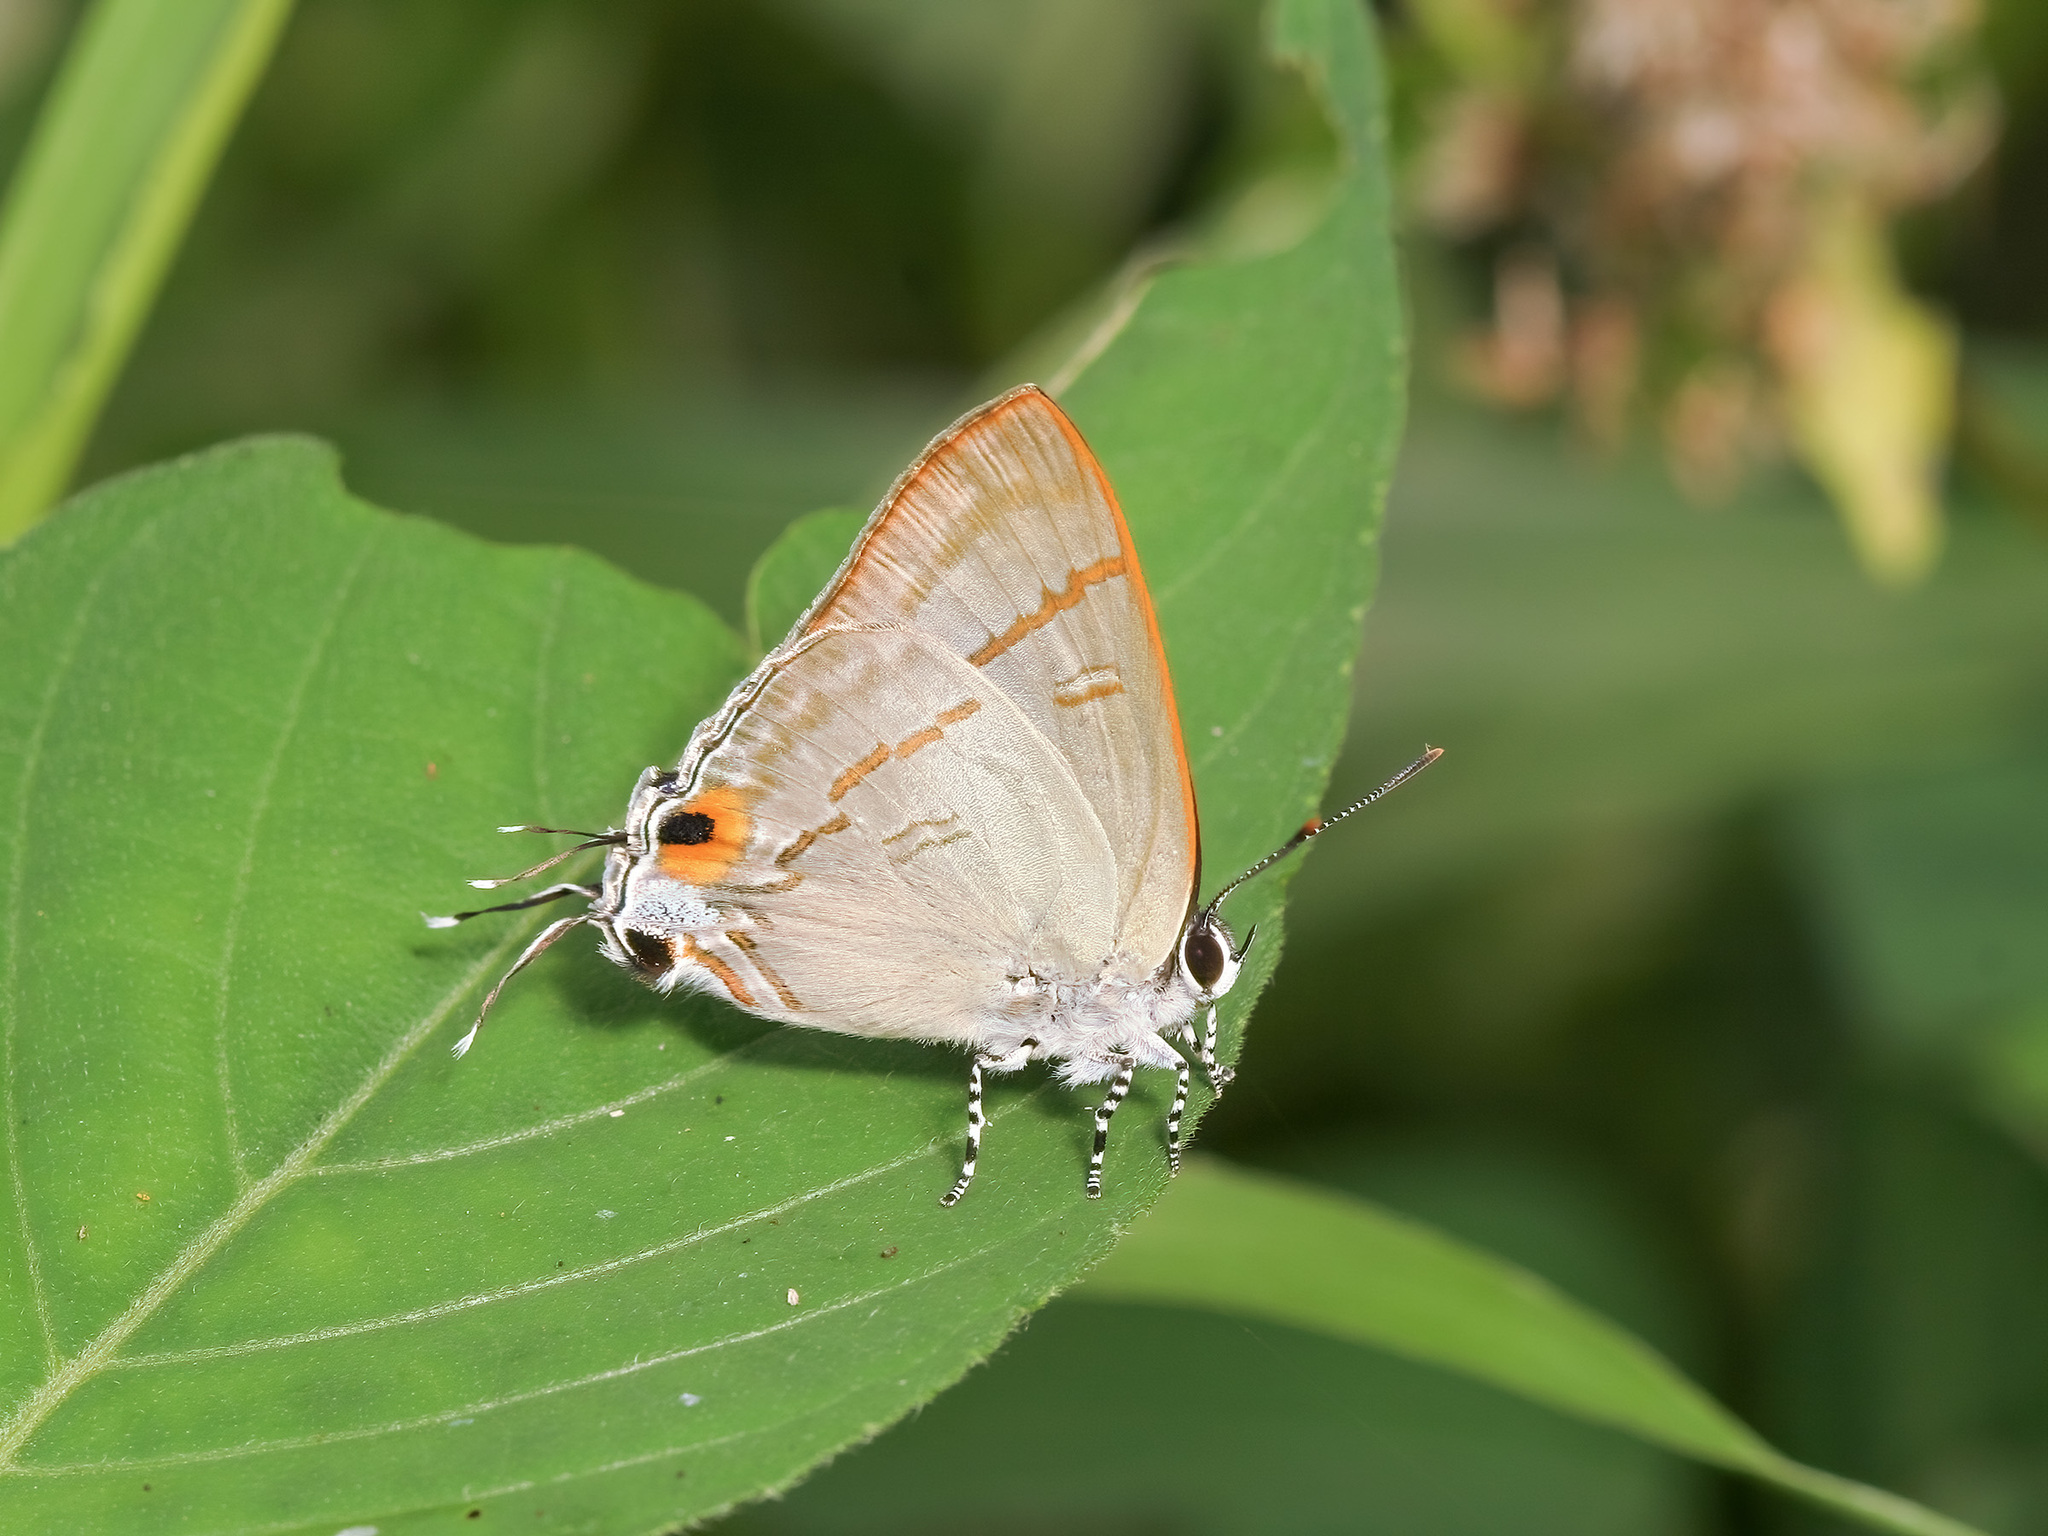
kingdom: Animalia
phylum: Arthropoda
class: Insecta
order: Lepidoptera
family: Lycaenidae
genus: Hypolycaena
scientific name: Hypolycaena erylus
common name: Common tit
